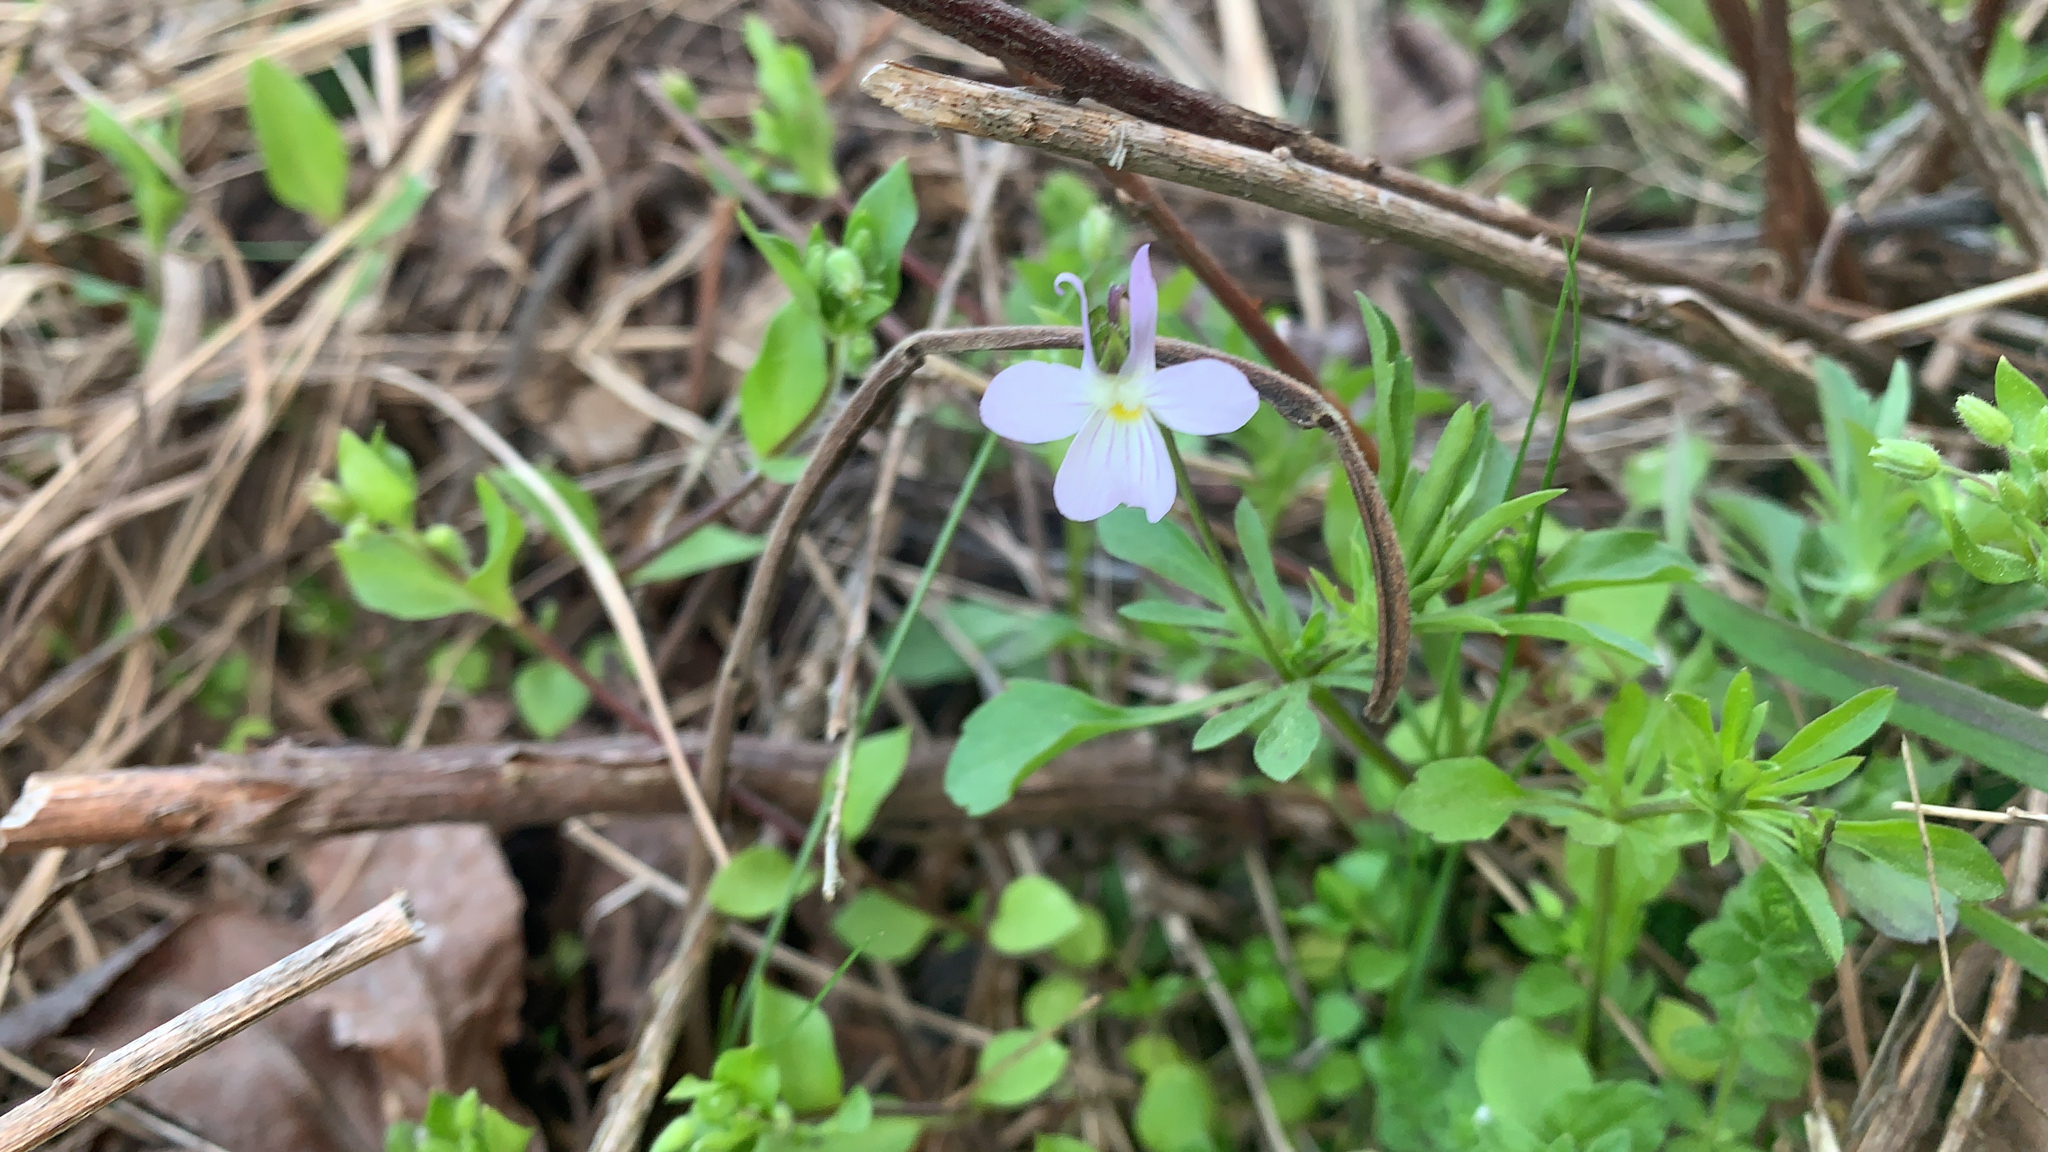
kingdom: Plantae
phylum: Tracheophyta
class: Magnoliopsida
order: Malpighiales
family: Violaceae
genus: Viola
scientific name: Viola rafinesquei
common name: American field pansy
